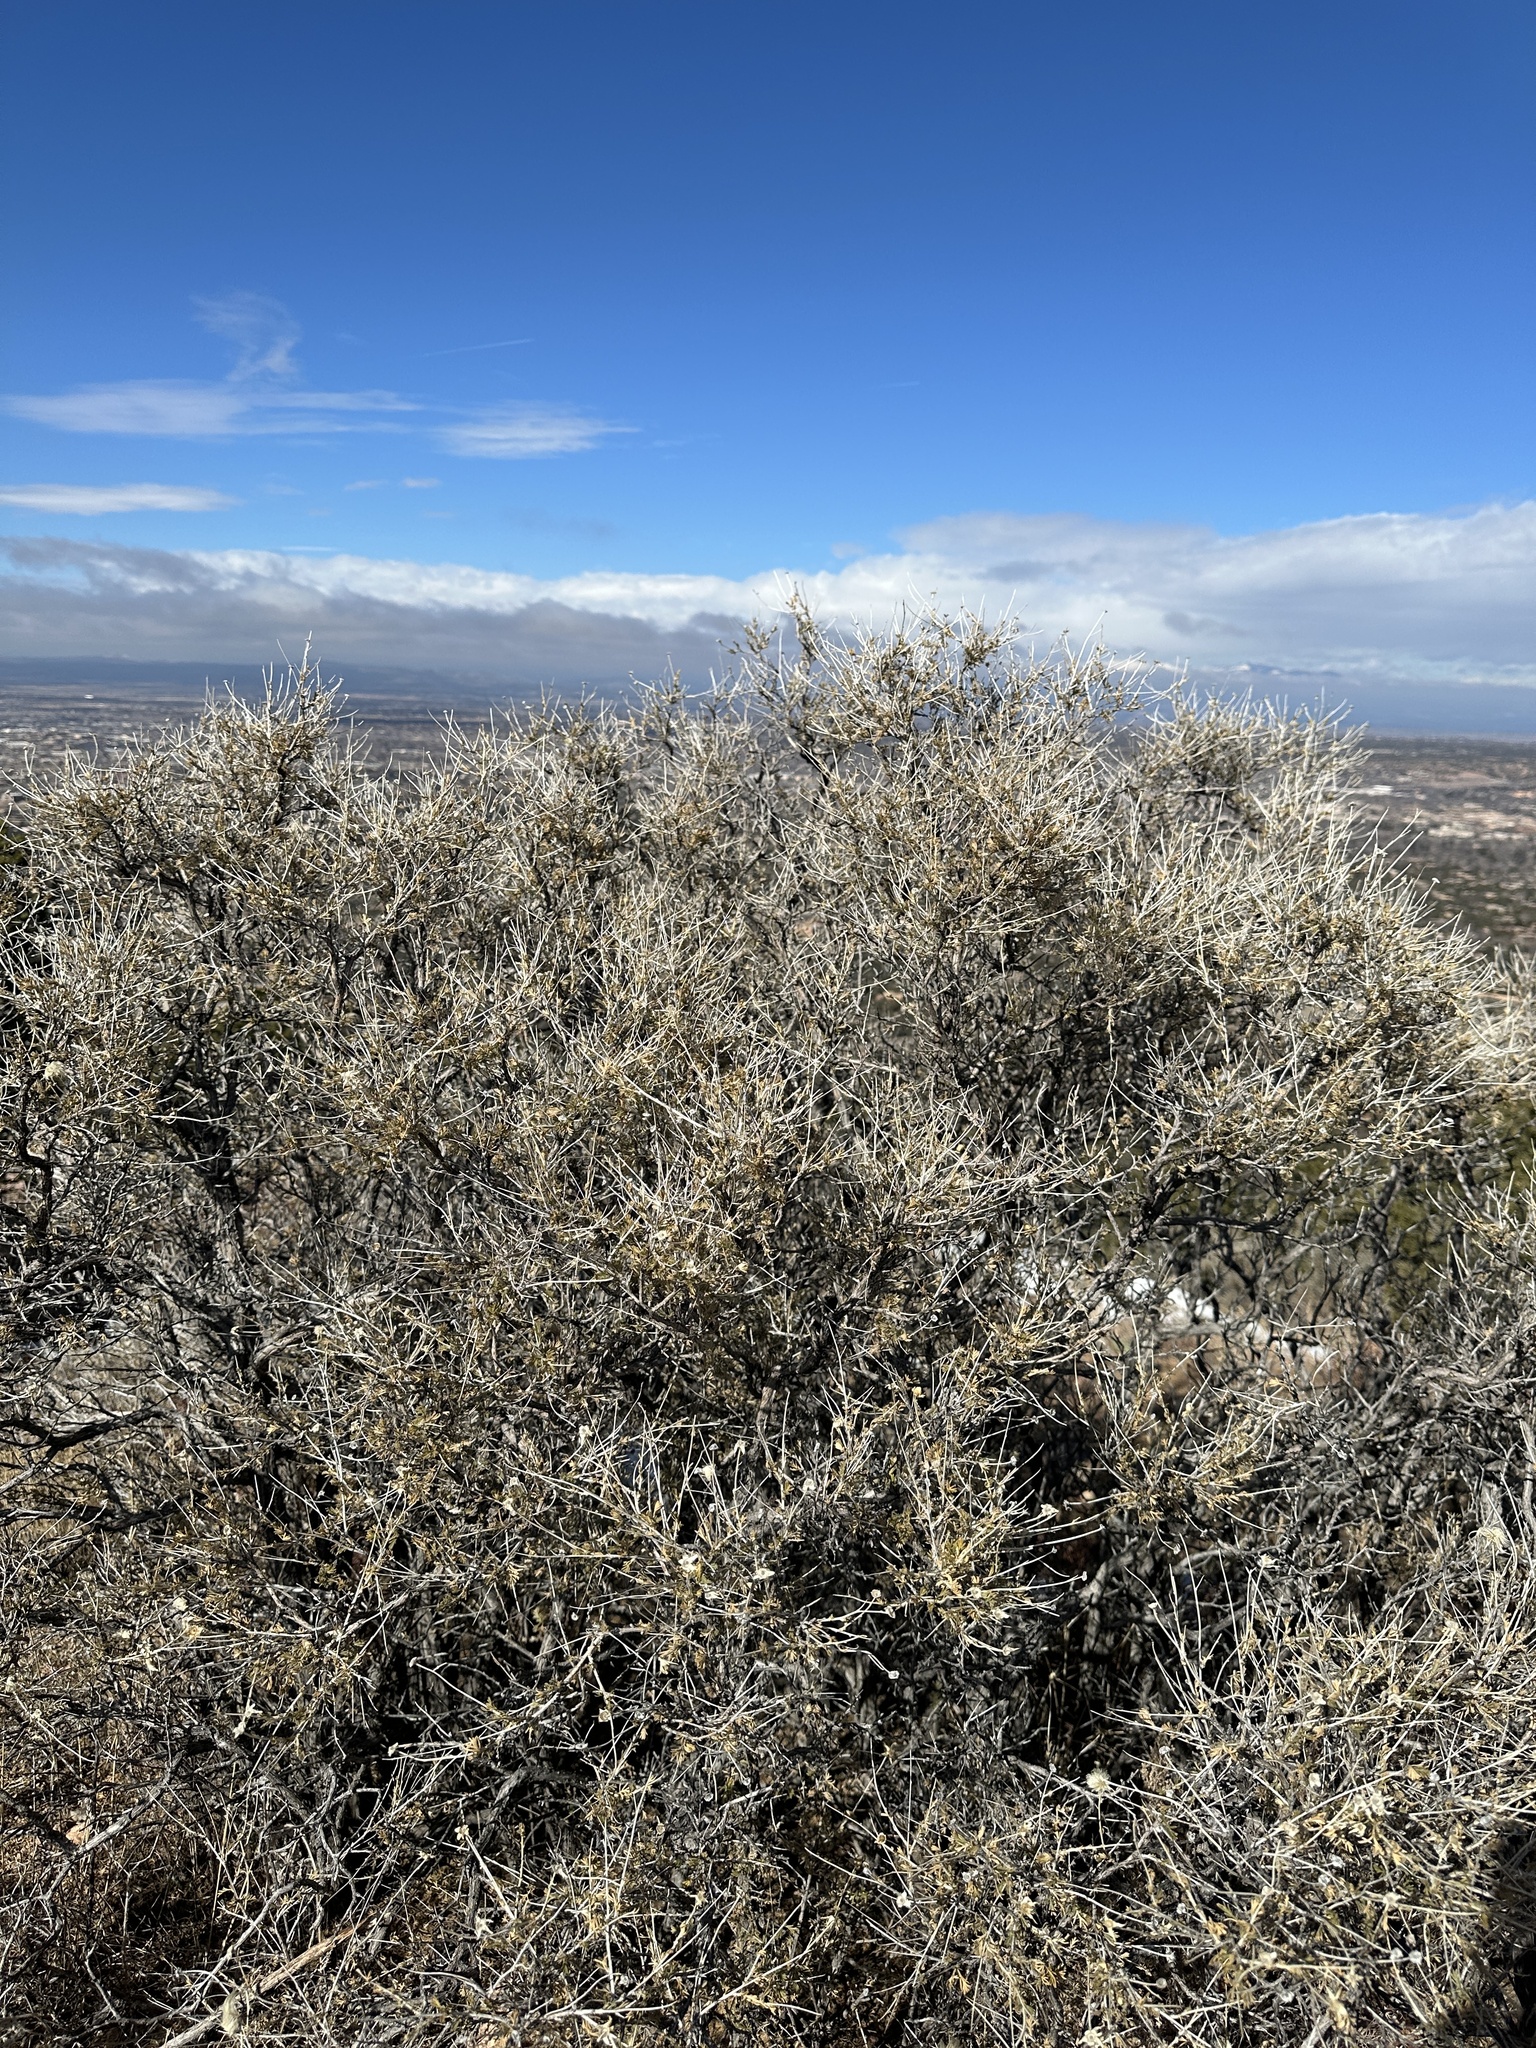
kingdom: Plantae
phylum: Tracheophyta
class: Magnoliopsida
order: Rosales
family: Rosaceae
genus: Fallugia
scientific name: Fallugia paradoxa
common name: Apache-plume
